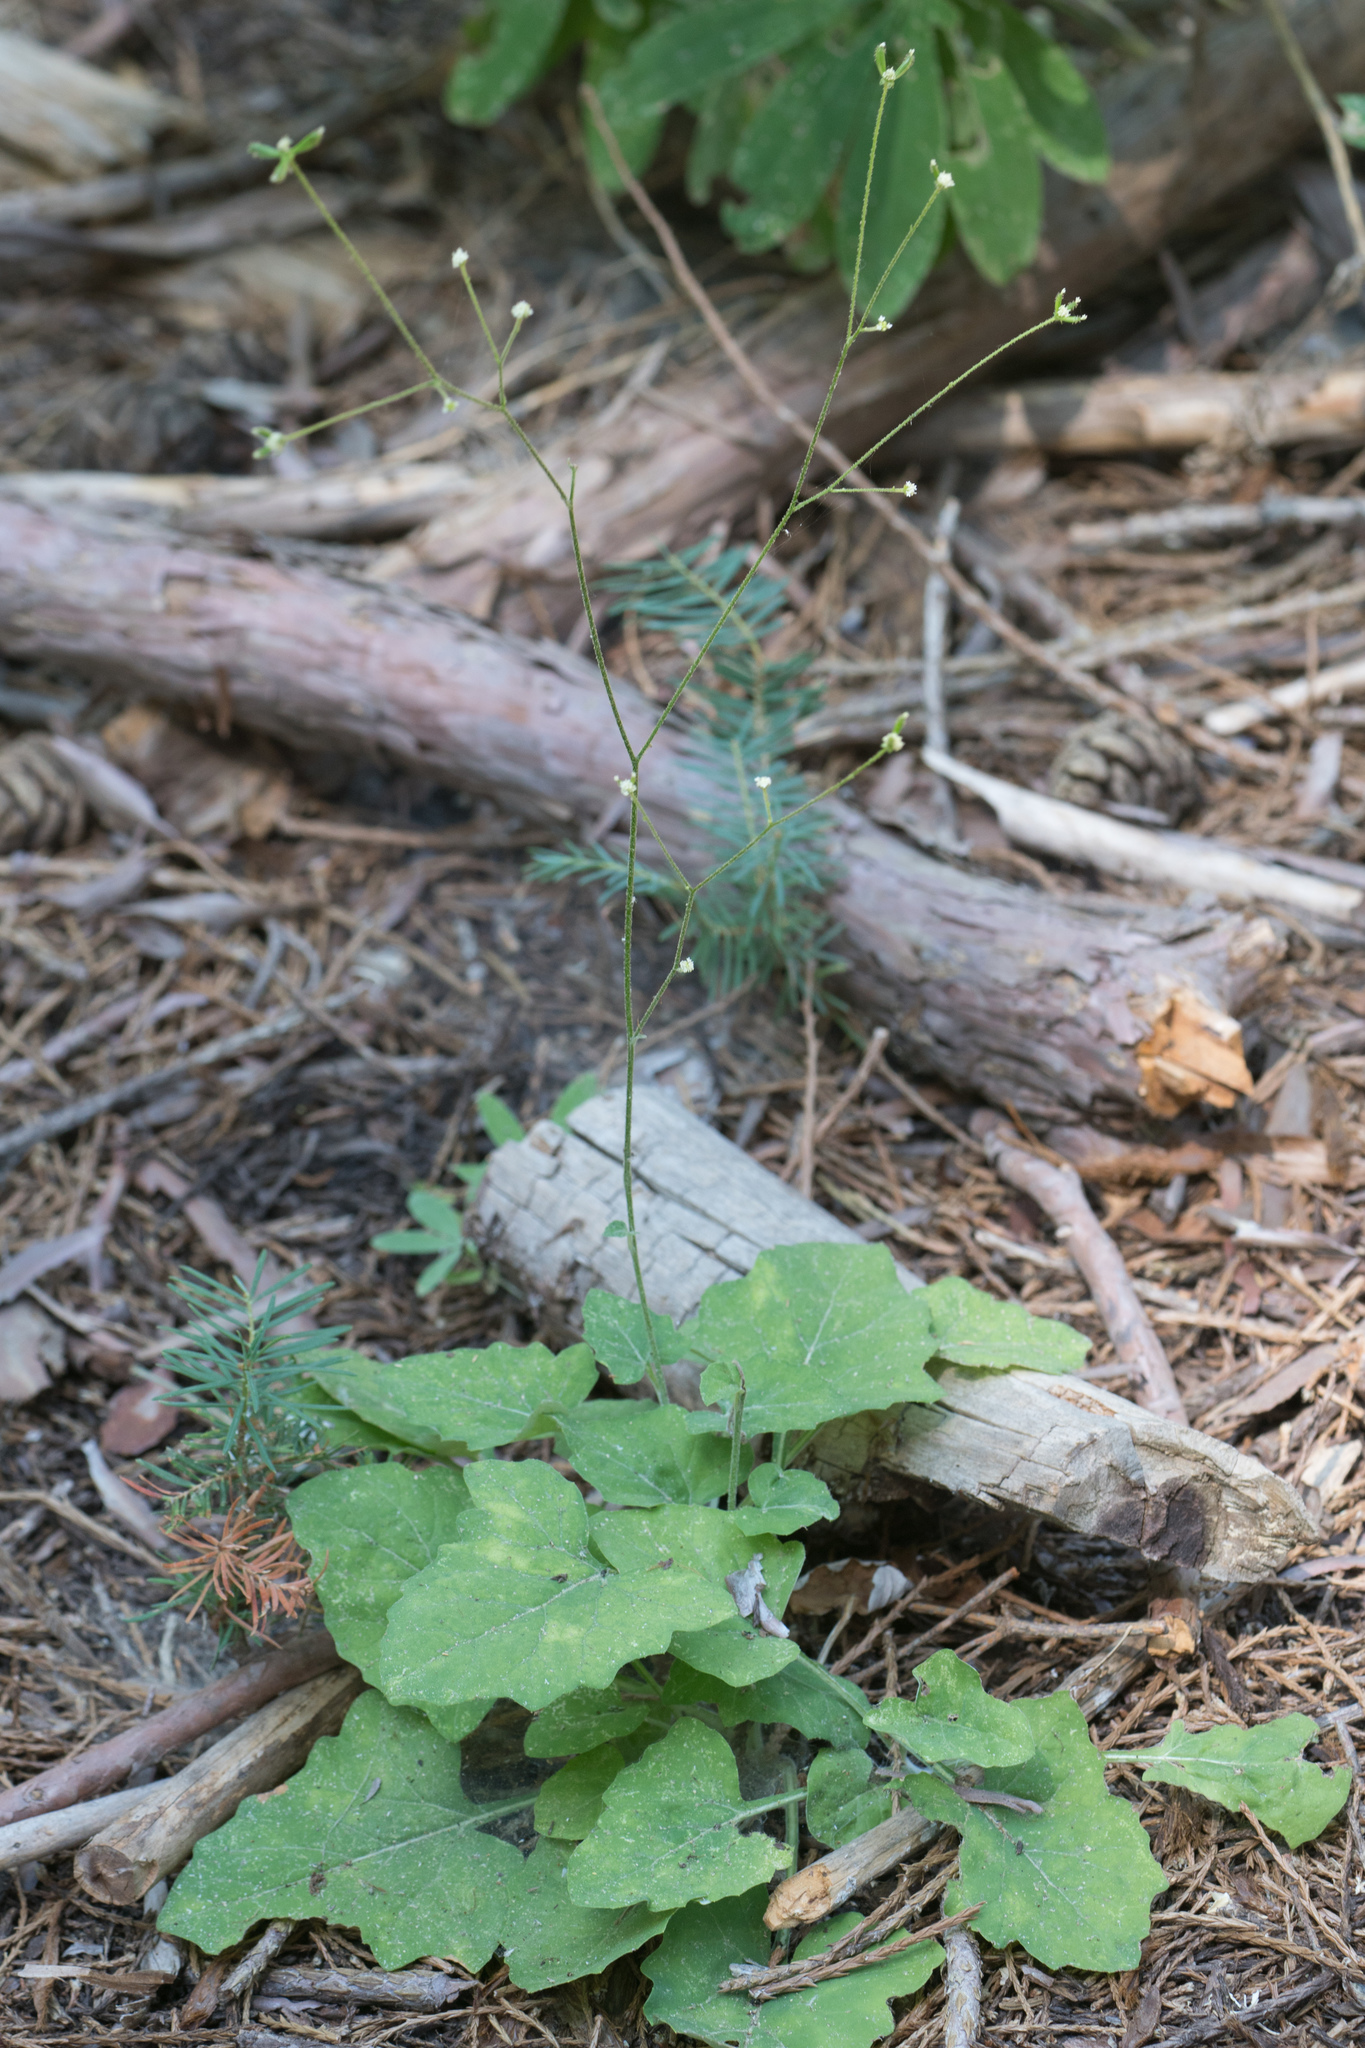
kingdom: Plantae
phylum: Tracheophyta
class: Magnoliopsida
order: Asterales
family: Asteraceae
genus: Adenocaulon
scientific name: Adenocaulon bicolor
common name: Trailplant
